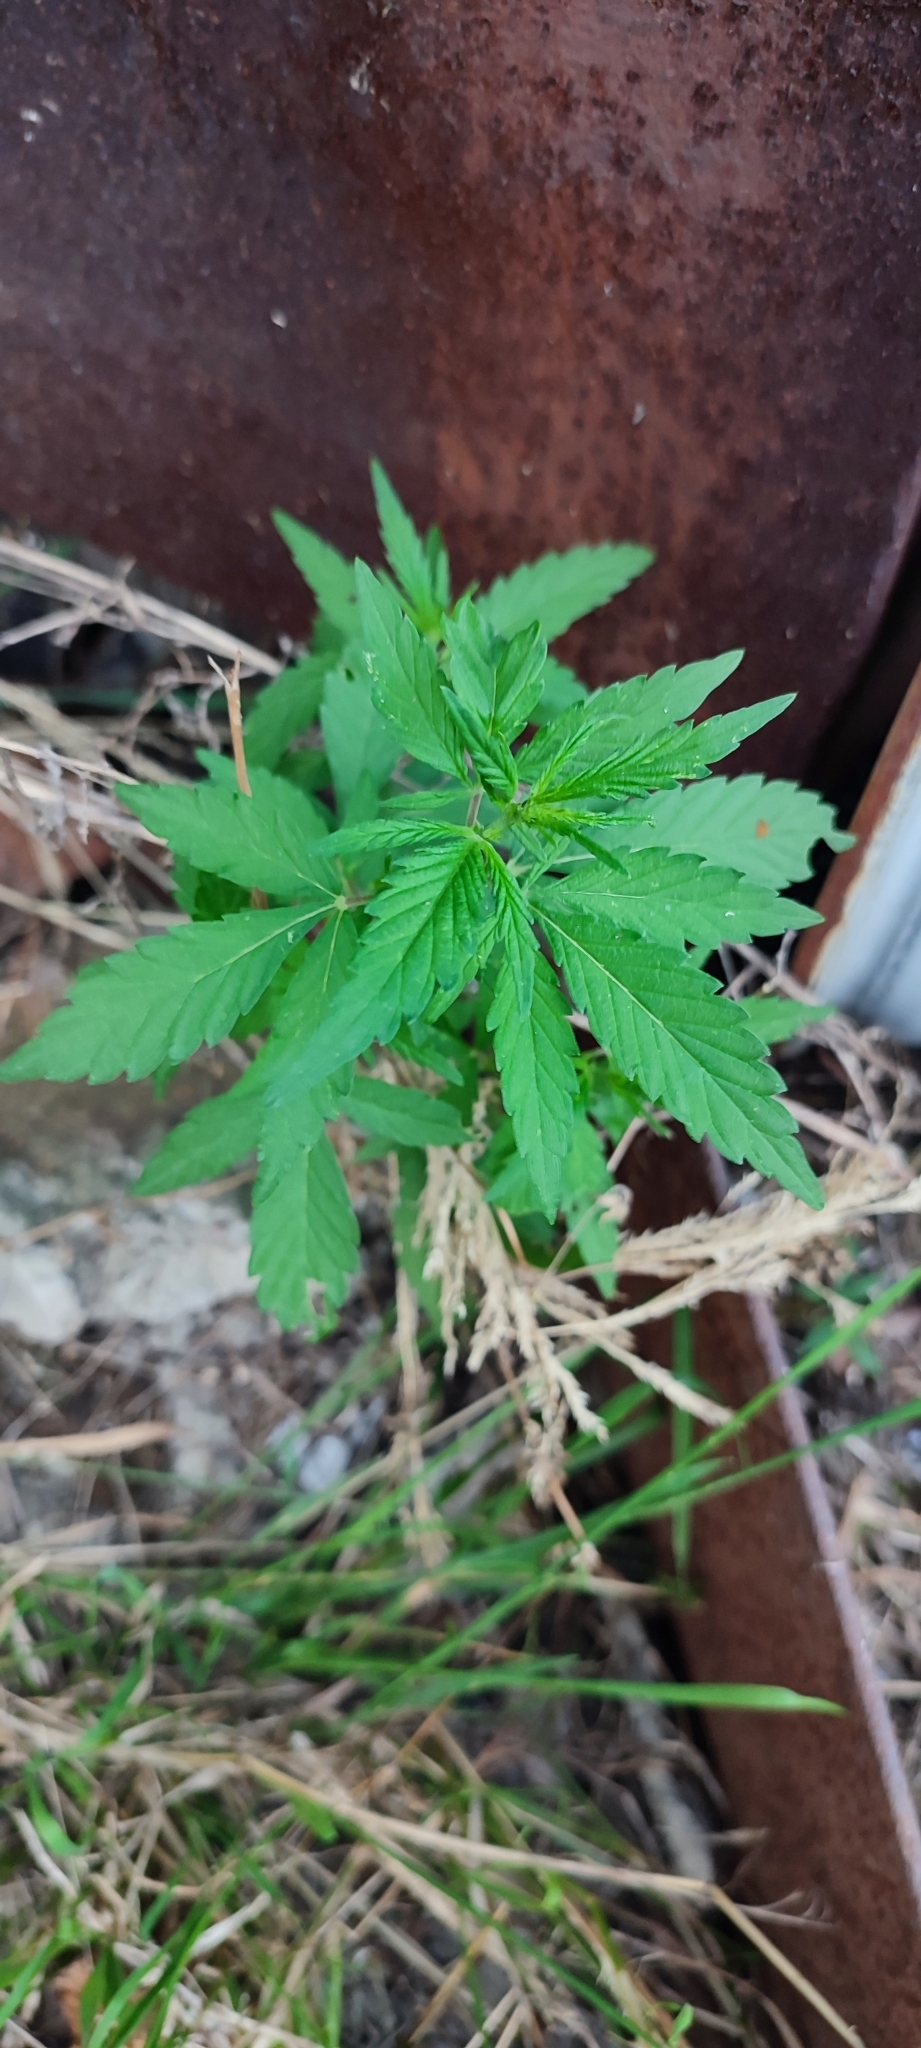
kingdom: Plantae
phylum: Tracheophyta
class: Magnoliopsida
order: Rosales
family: Cannabaceae
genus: Cannabis
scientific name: Cannabis sativa
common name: Hemp
